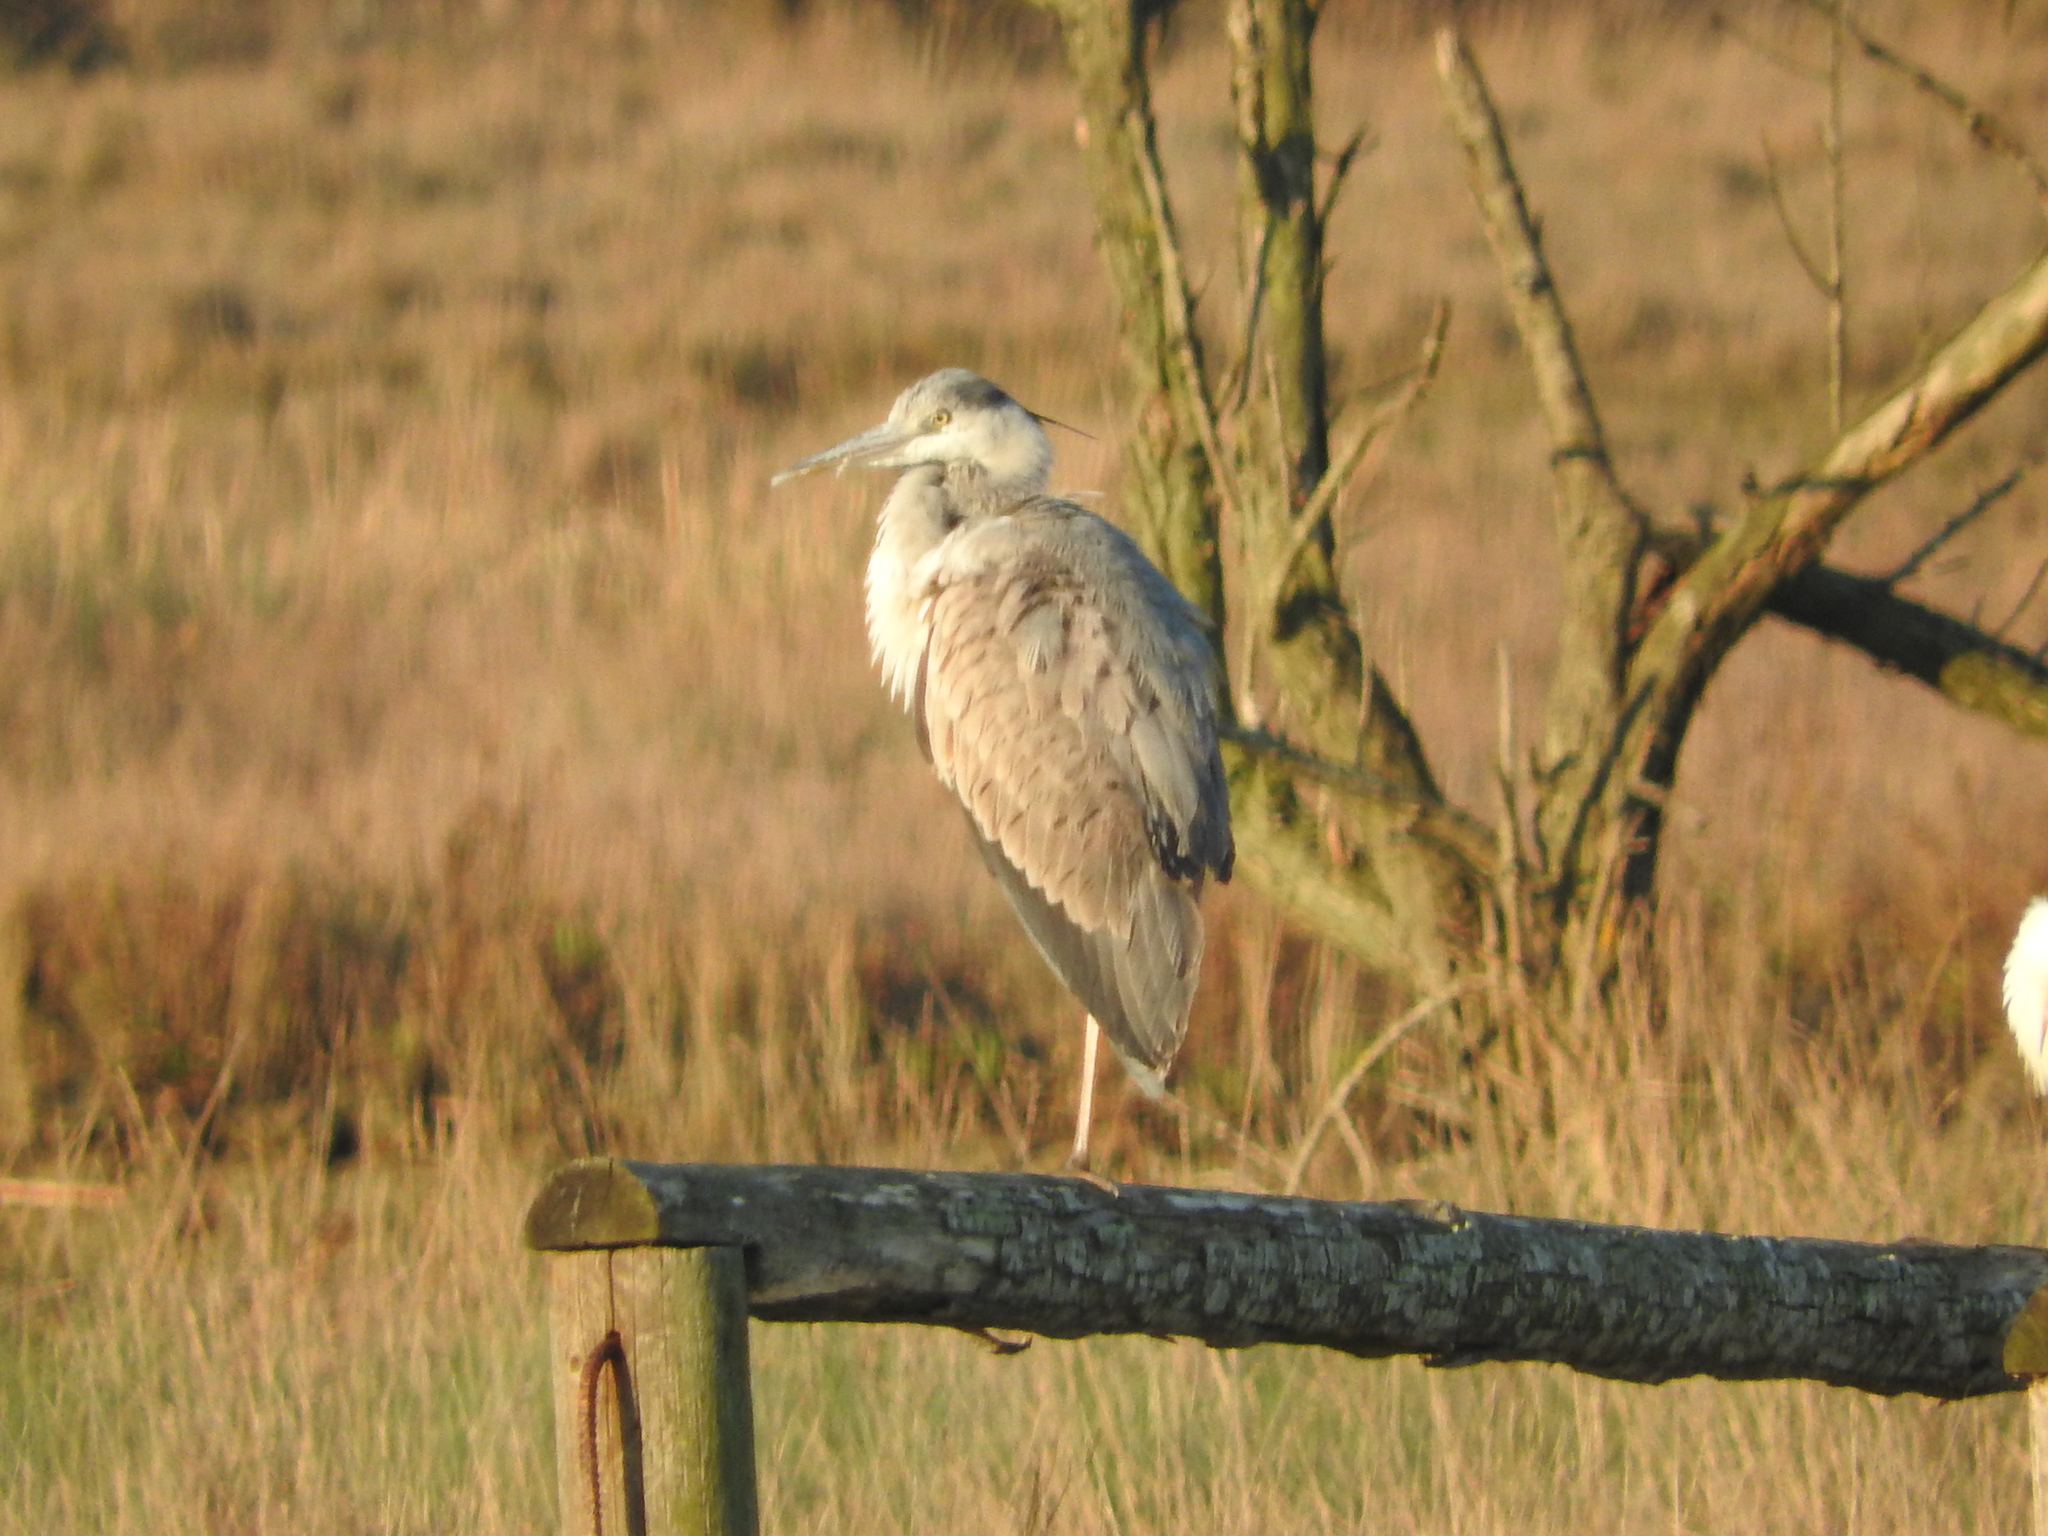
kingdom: Animalia
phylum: Chordata
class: Aves
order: Pelecaniformes
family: Ardeidae
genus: Ardea
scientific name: Ardea cinerea
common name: Grey heron
